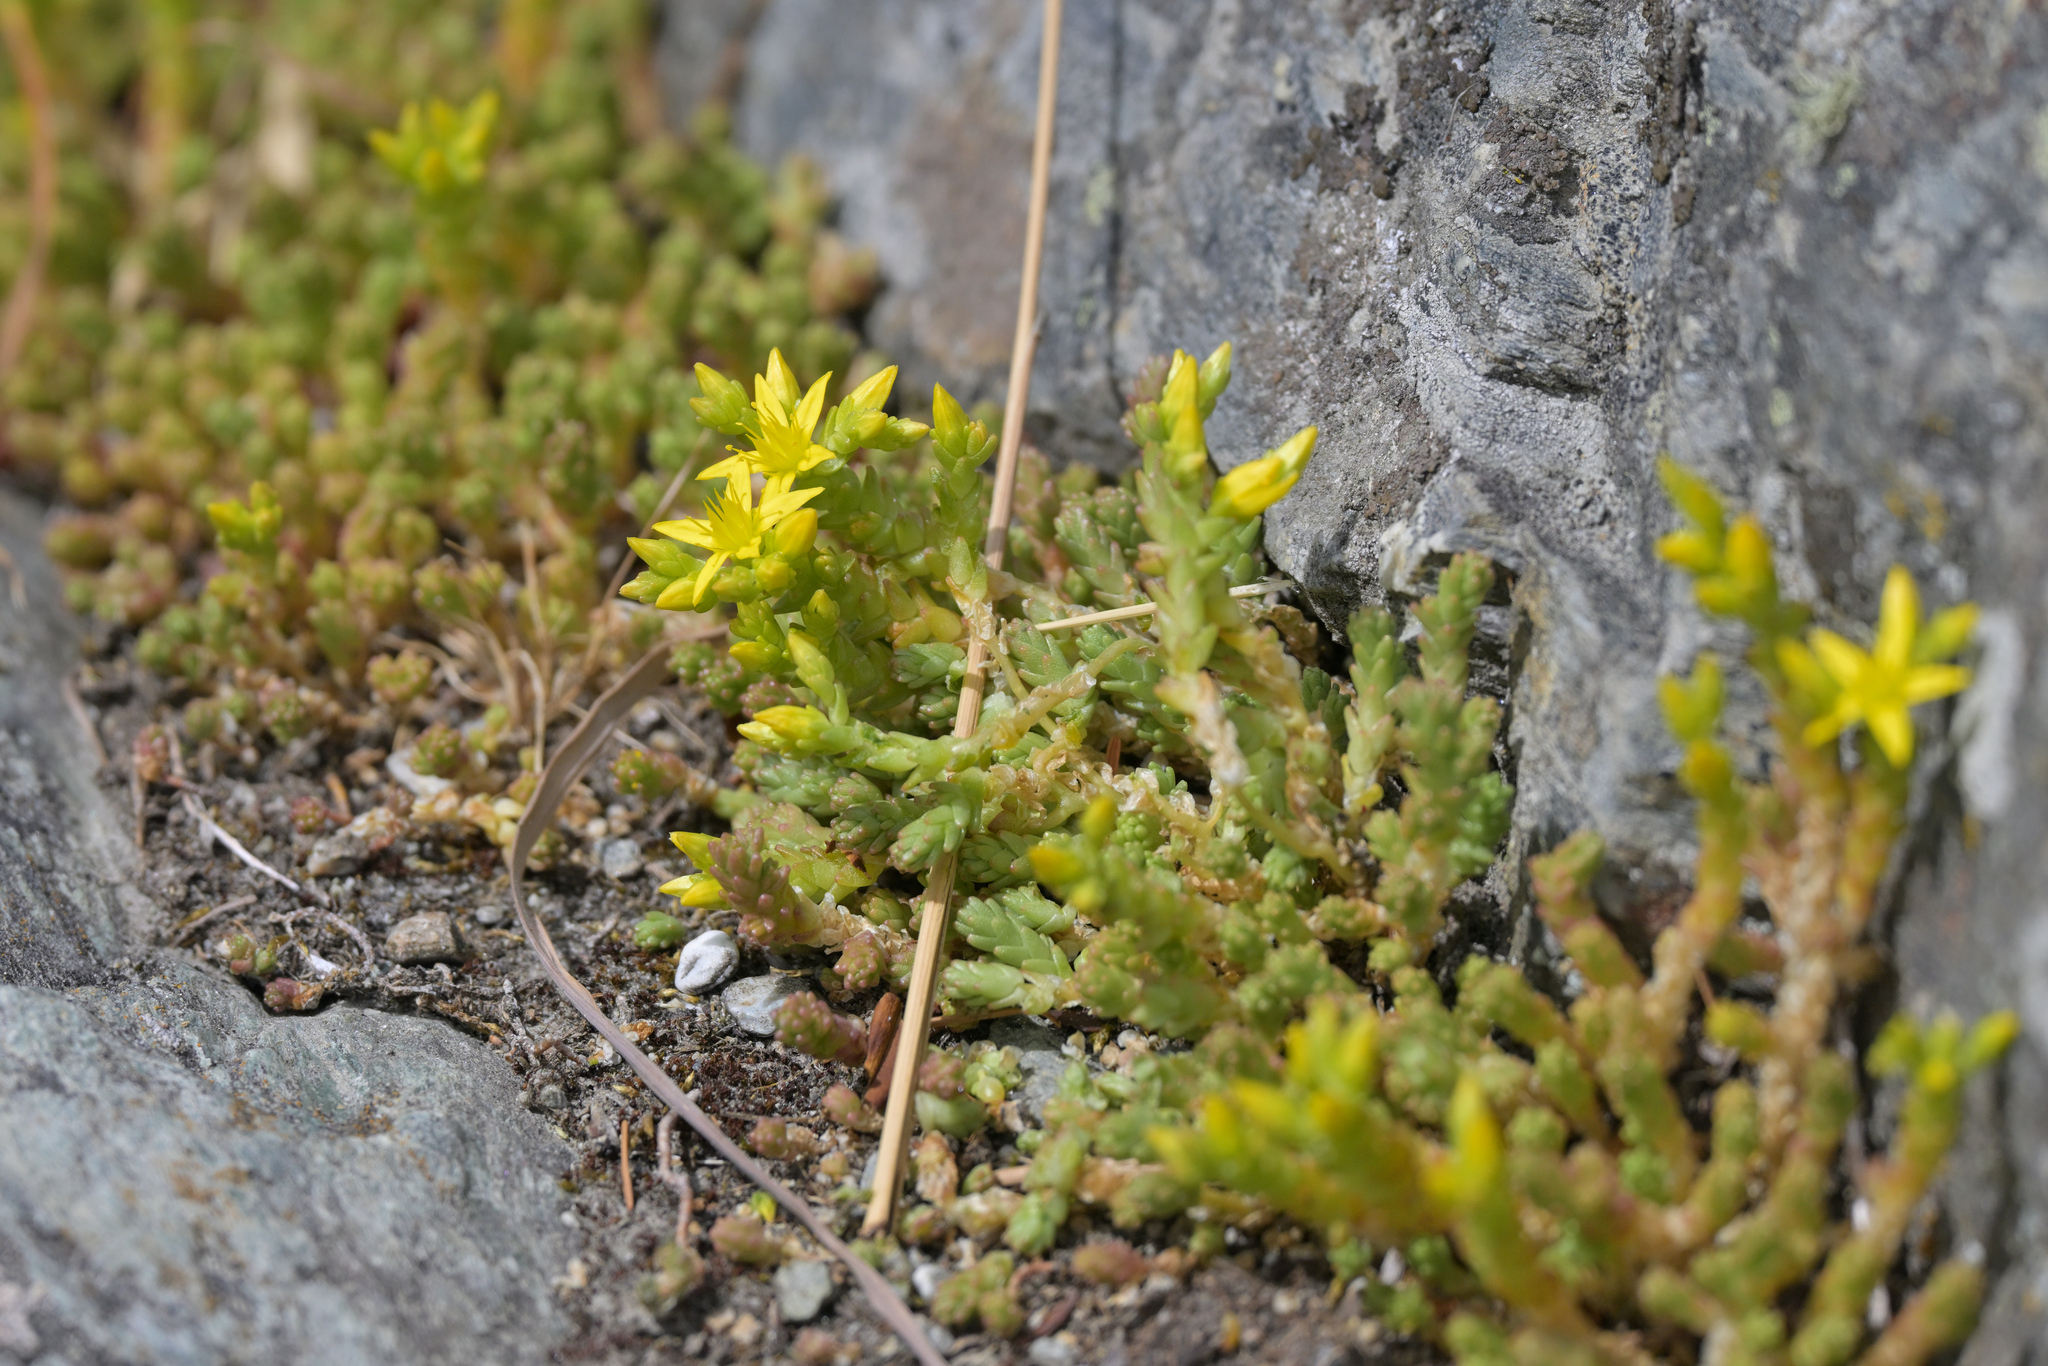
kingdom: Plantae
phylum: Tracheophyta
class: Magnoliopsida
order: Saxifragales
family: Crassulaceae
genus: Sedum
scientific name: Sedum acre
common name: Biting stonecrop
